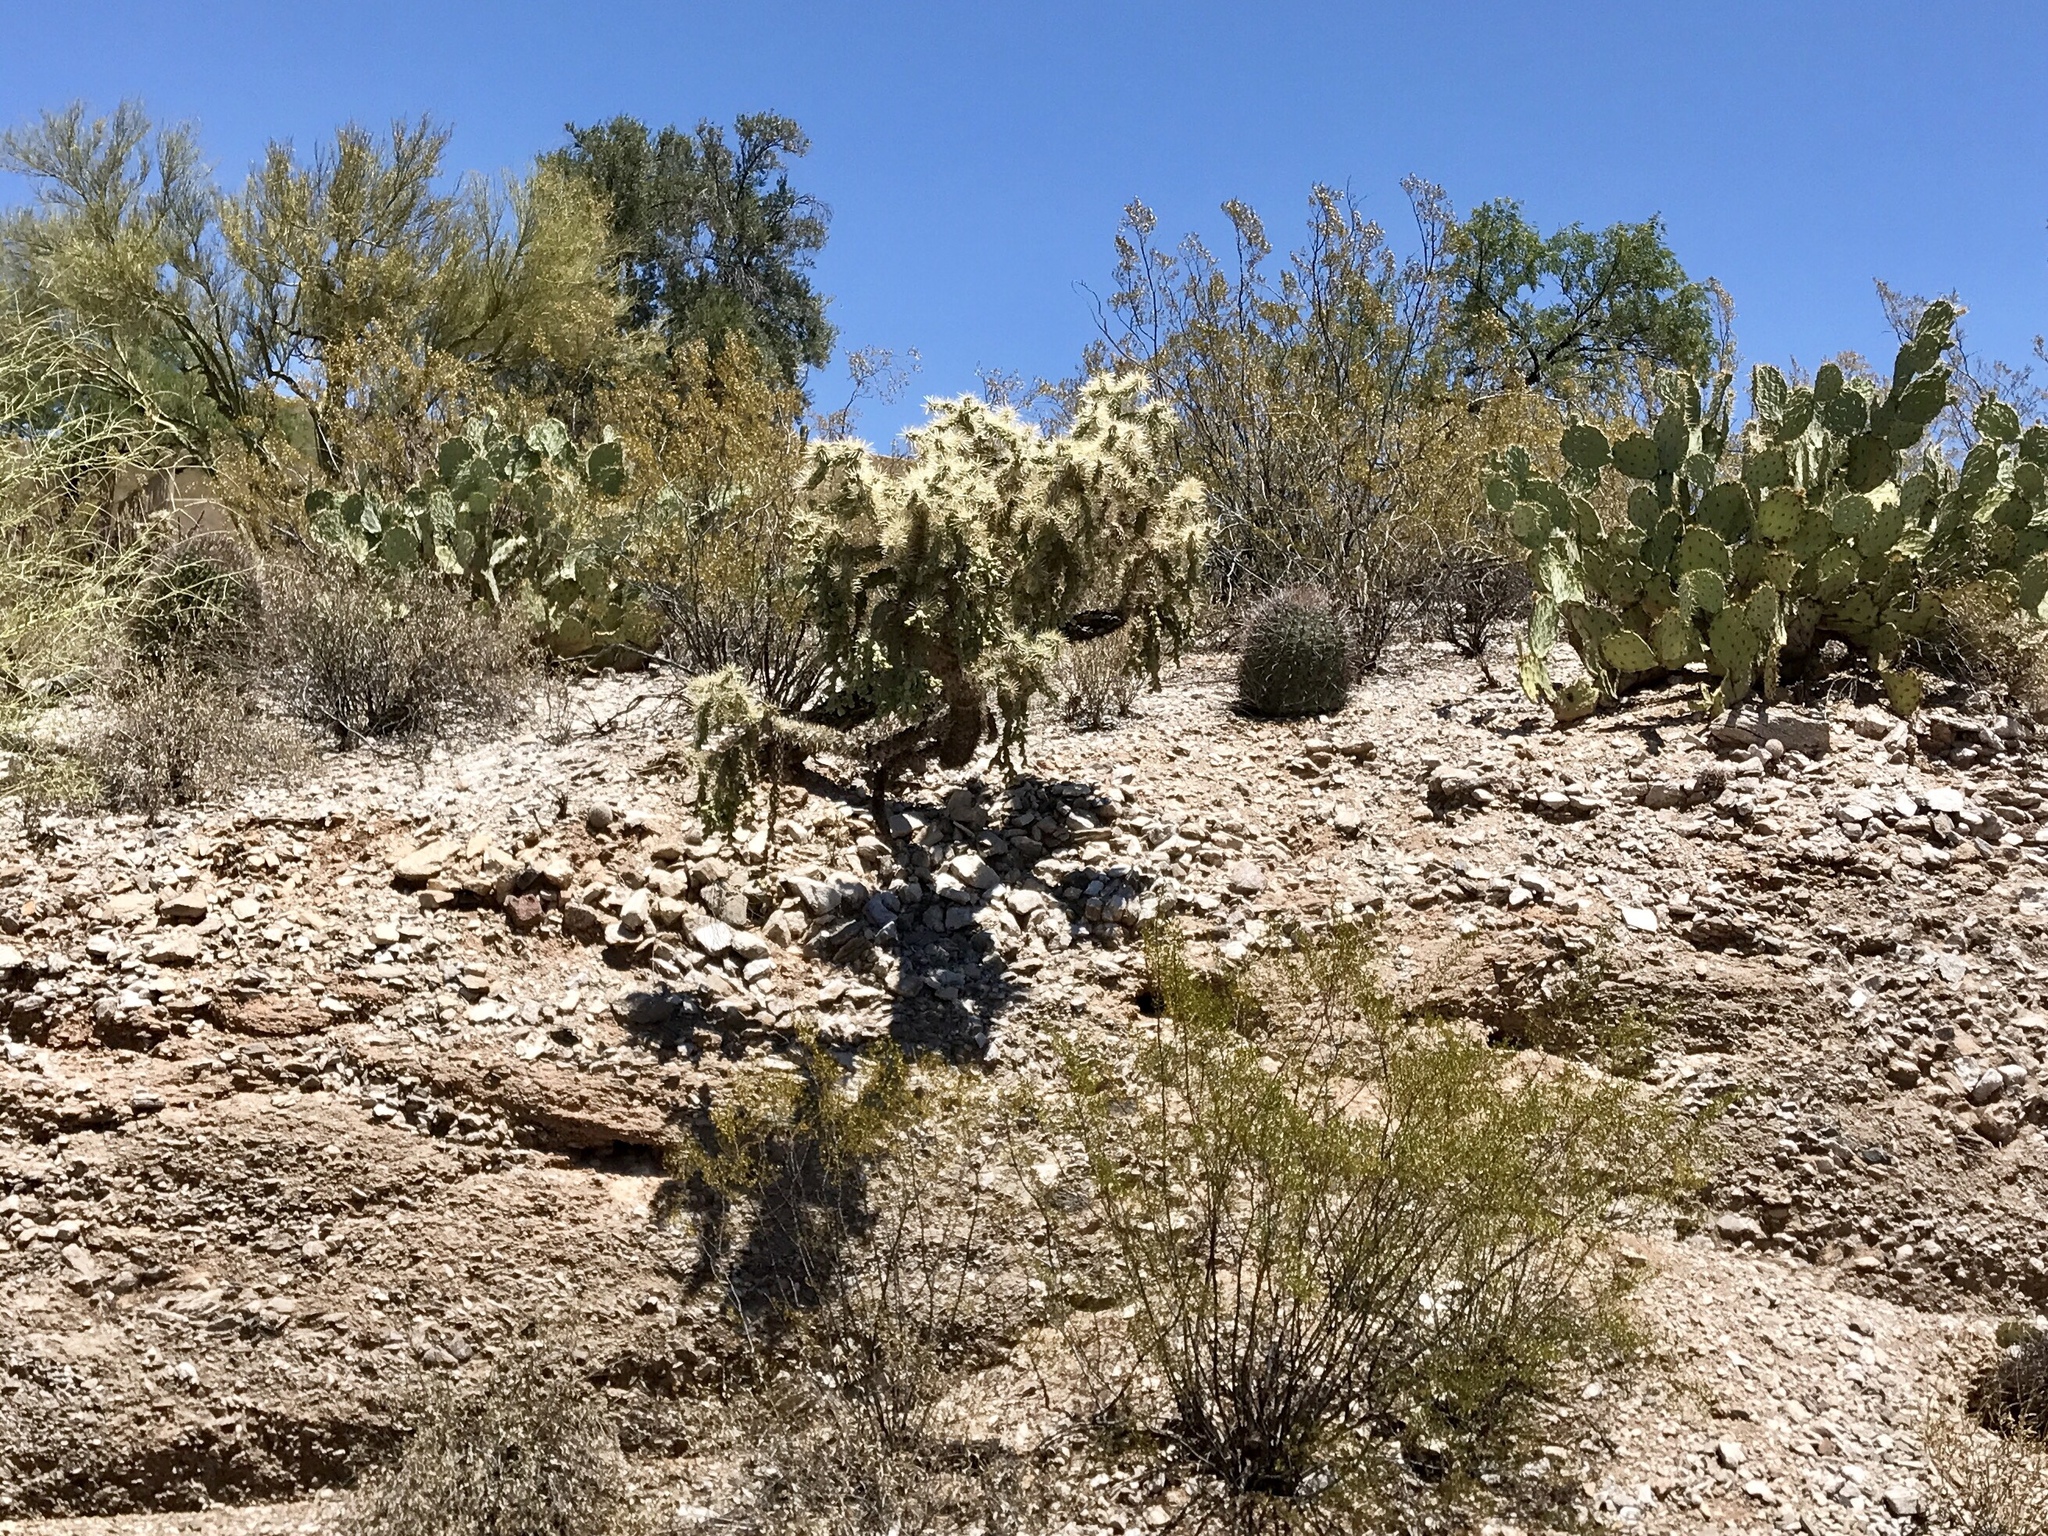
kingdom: Plantae
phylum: Tracheophyta
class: Magnoliopsida
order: Caryophyllales
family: Cactaceae
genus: Cylindropuntia
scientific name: Cylindropuntia fulgida
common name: Jumping cholla
